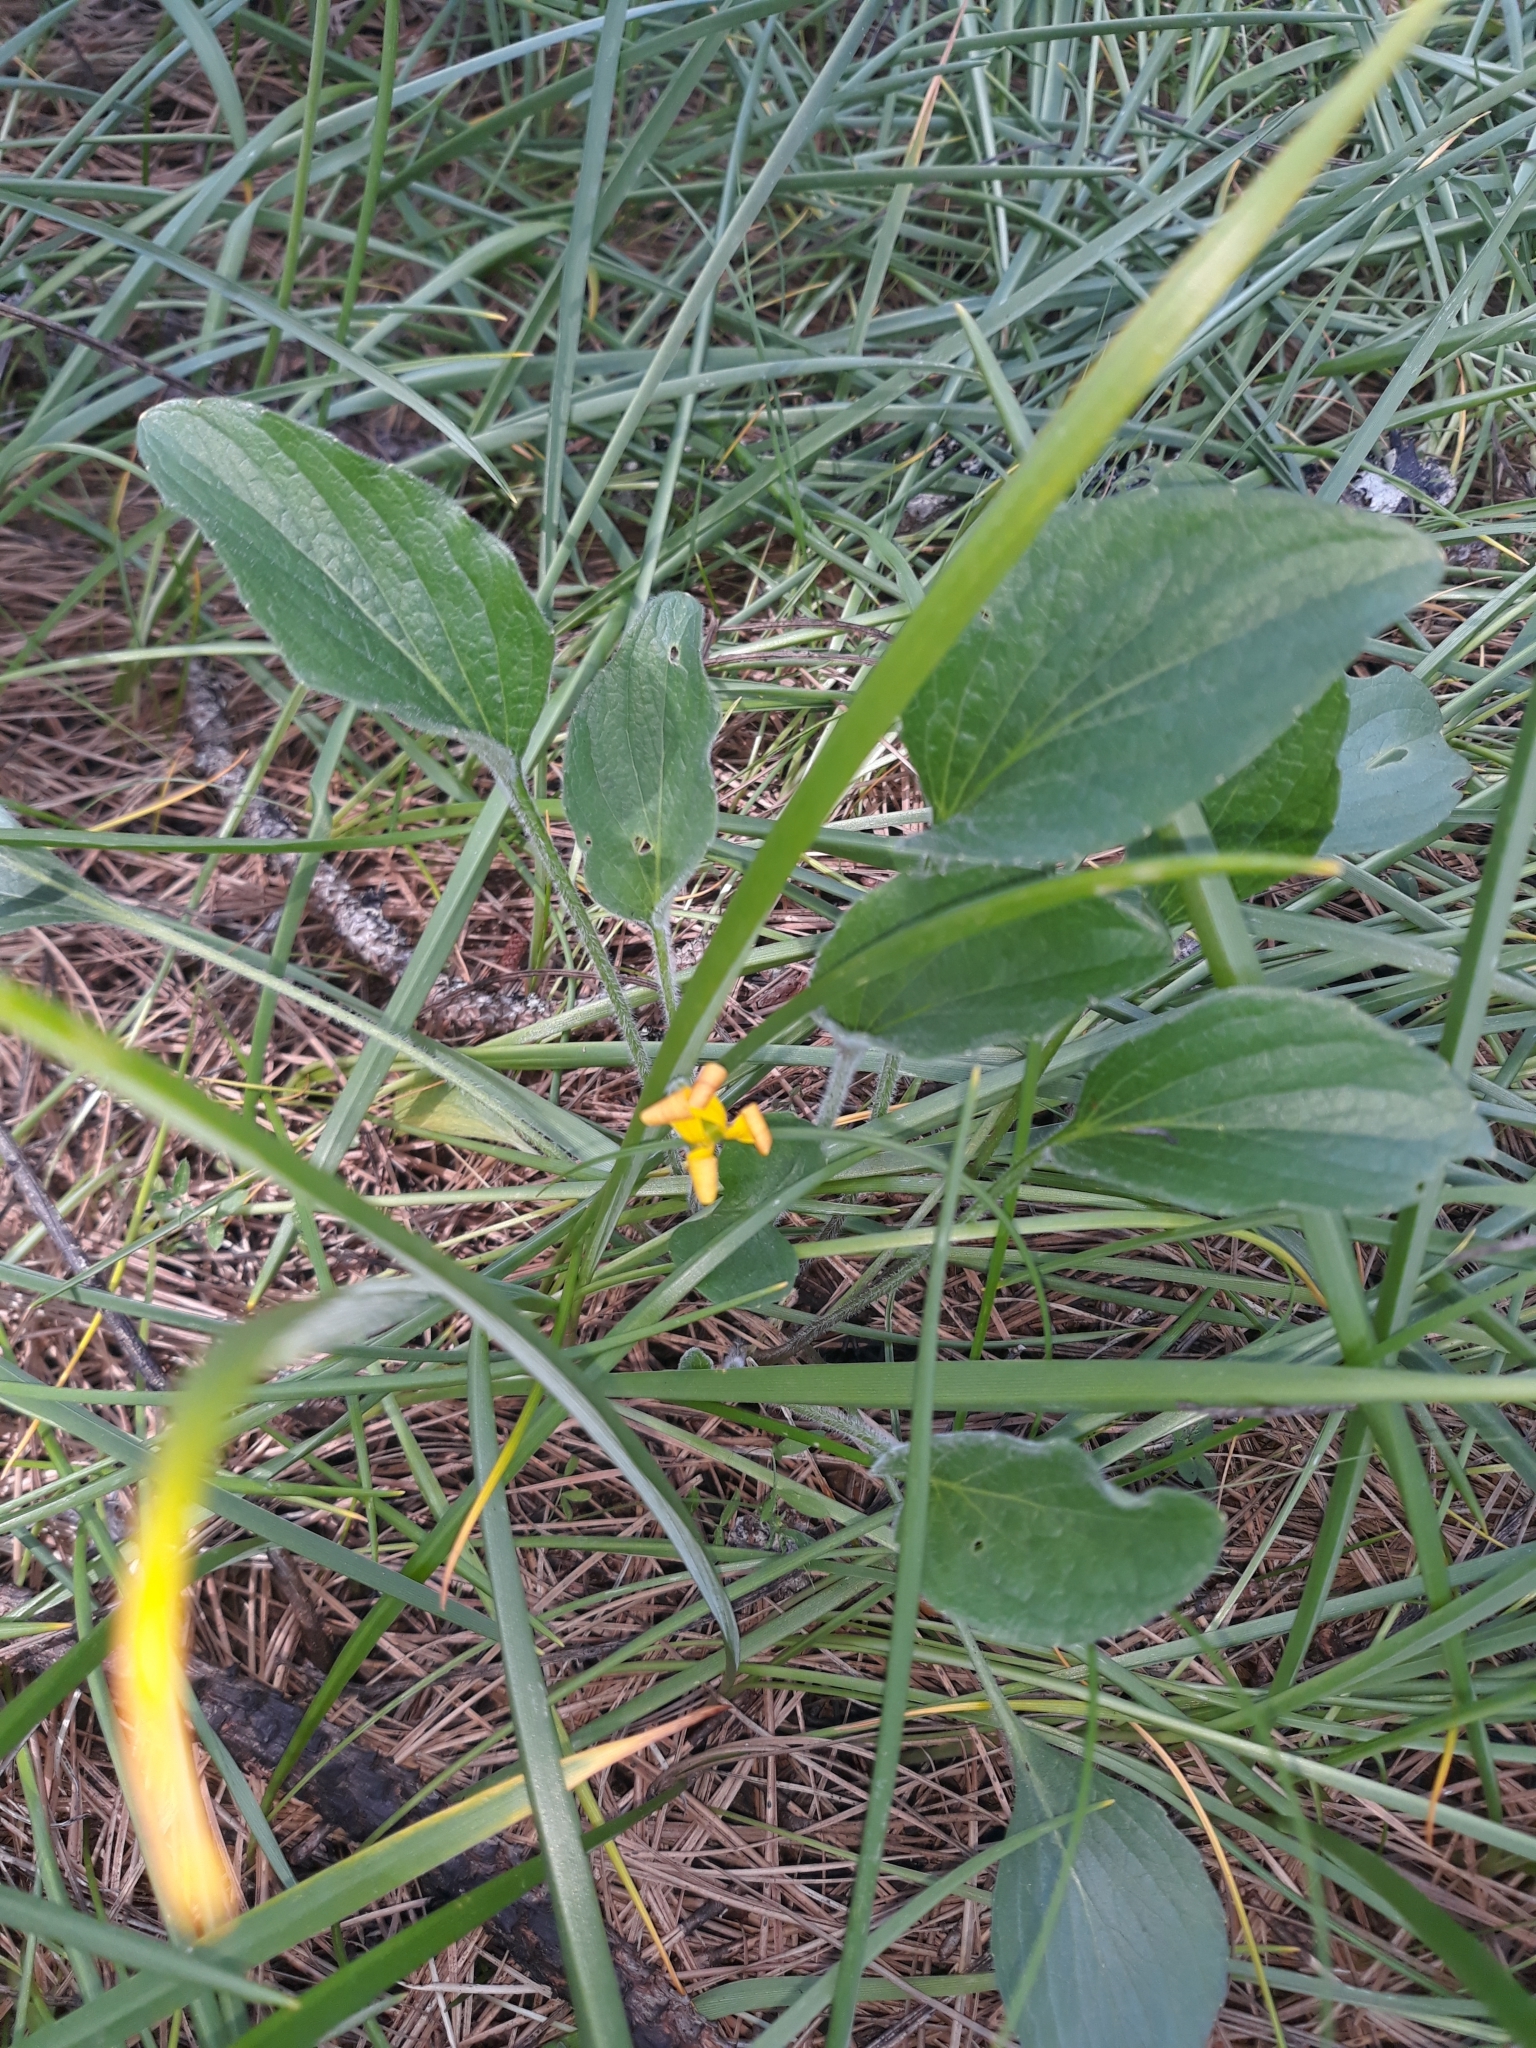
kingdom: Plantae
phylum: Tracheophyta
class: Magnoliopsida
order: Malpighiales
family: Violaceae
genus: Viola
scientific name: Viola praemorsa
